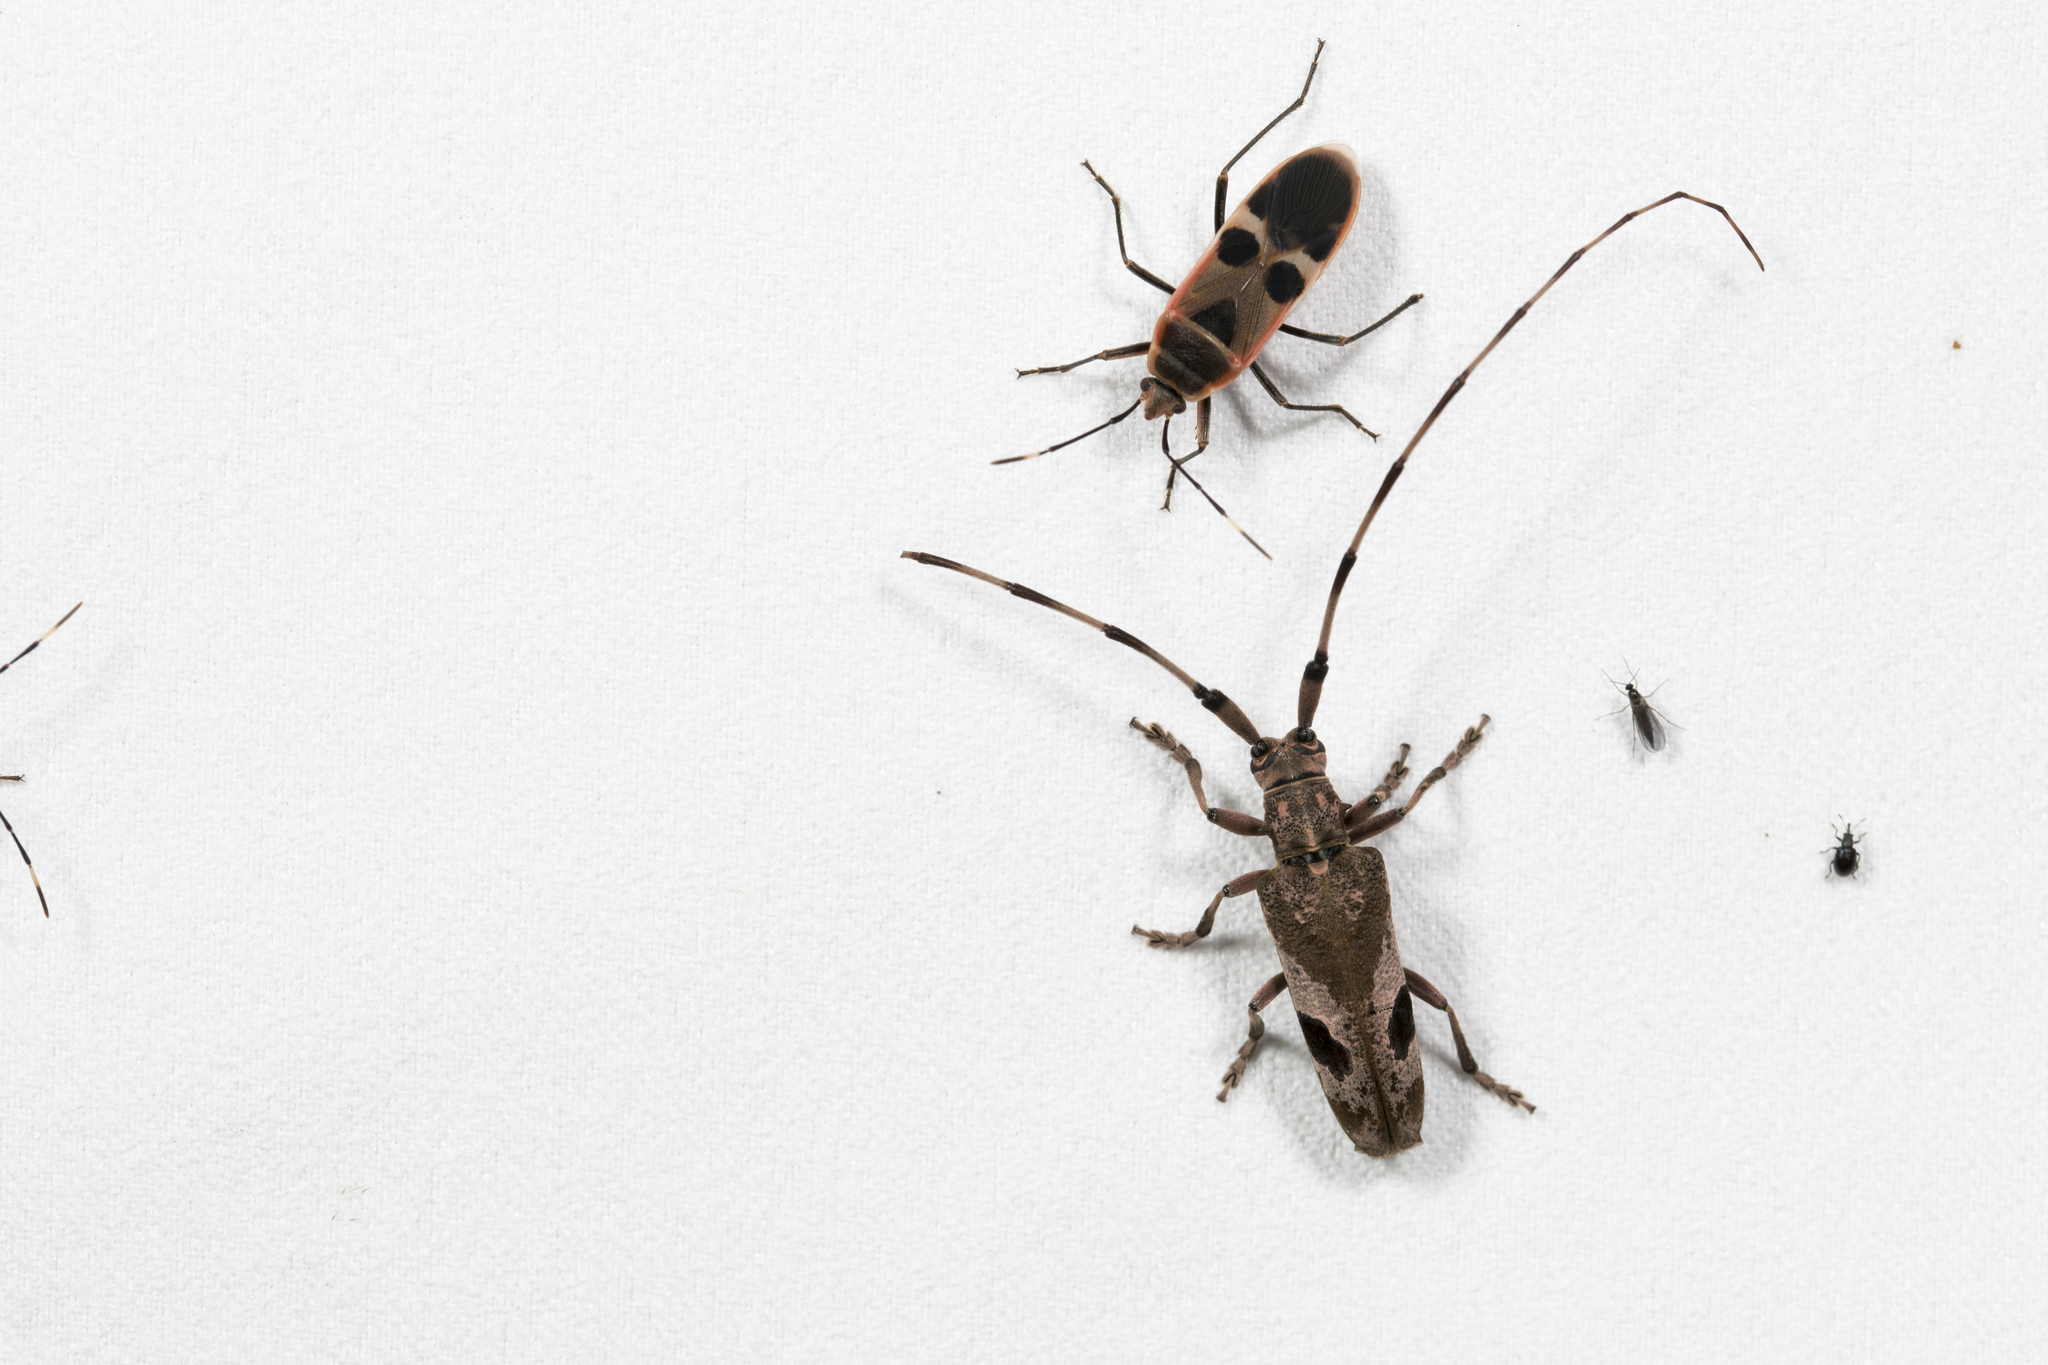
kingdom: Animalia
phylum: Arthropoda
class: Insecta
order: Coleoptera
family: Cerambycidae
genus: Uraecha
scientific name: Uraecha angusta
